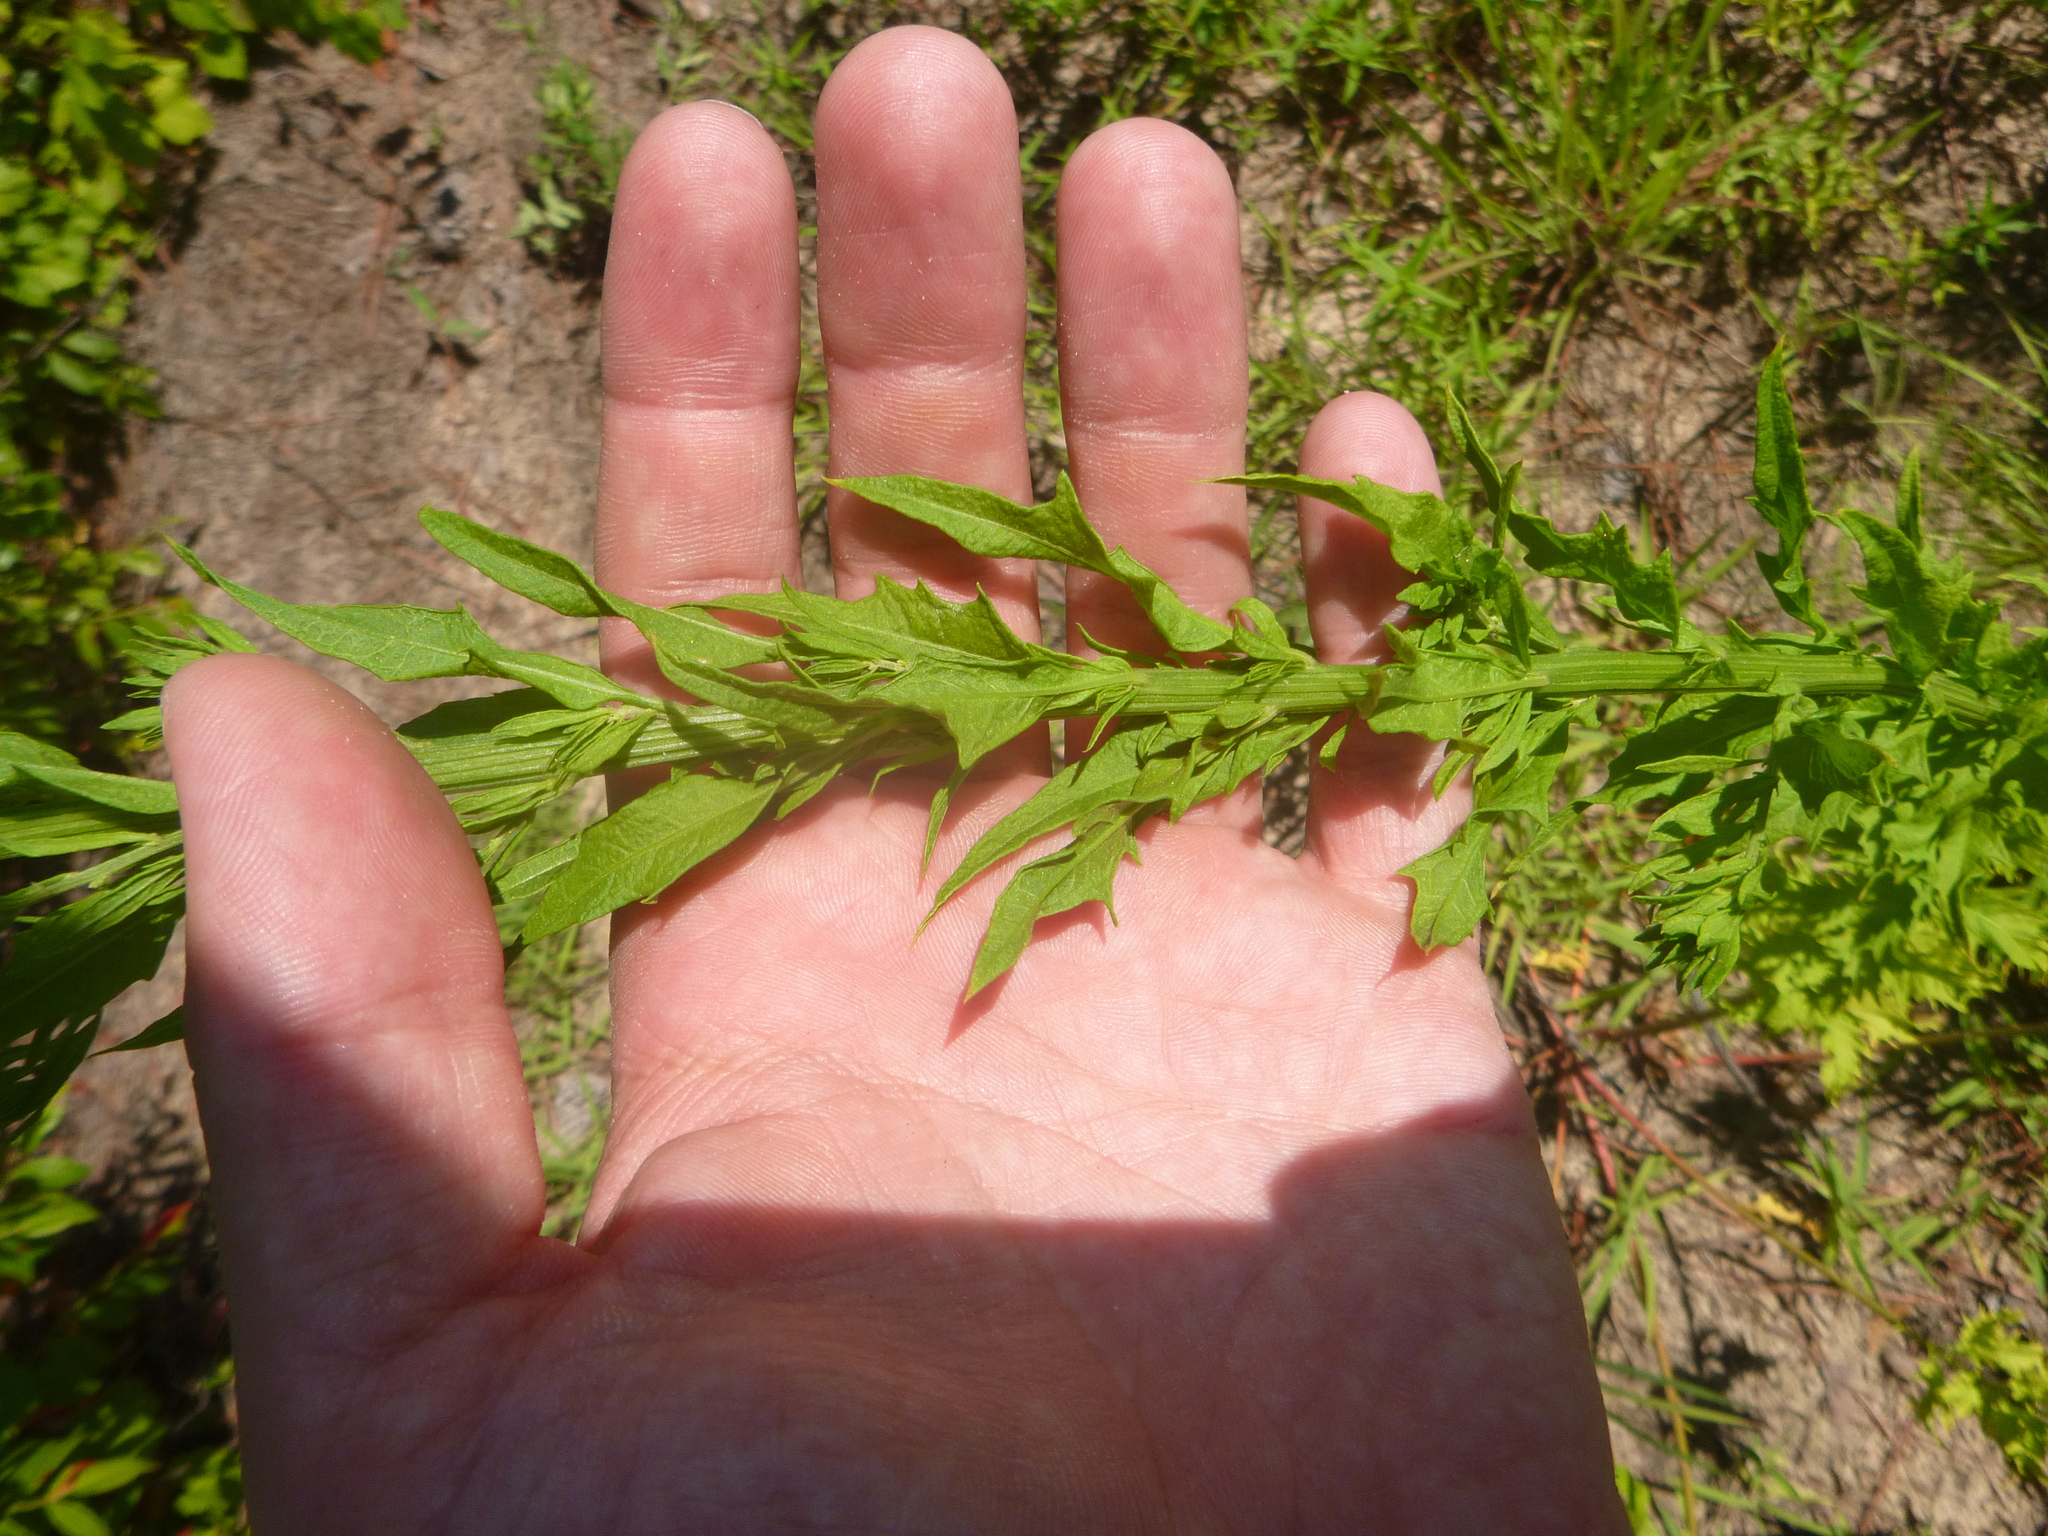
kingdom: Plantae
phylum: Tracheophyta
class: Magnoliopsida
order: Caryophyllales
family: Amaranthaceae
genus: Dysphania
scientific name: Dysphania ambrosioides
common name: Wormseed
